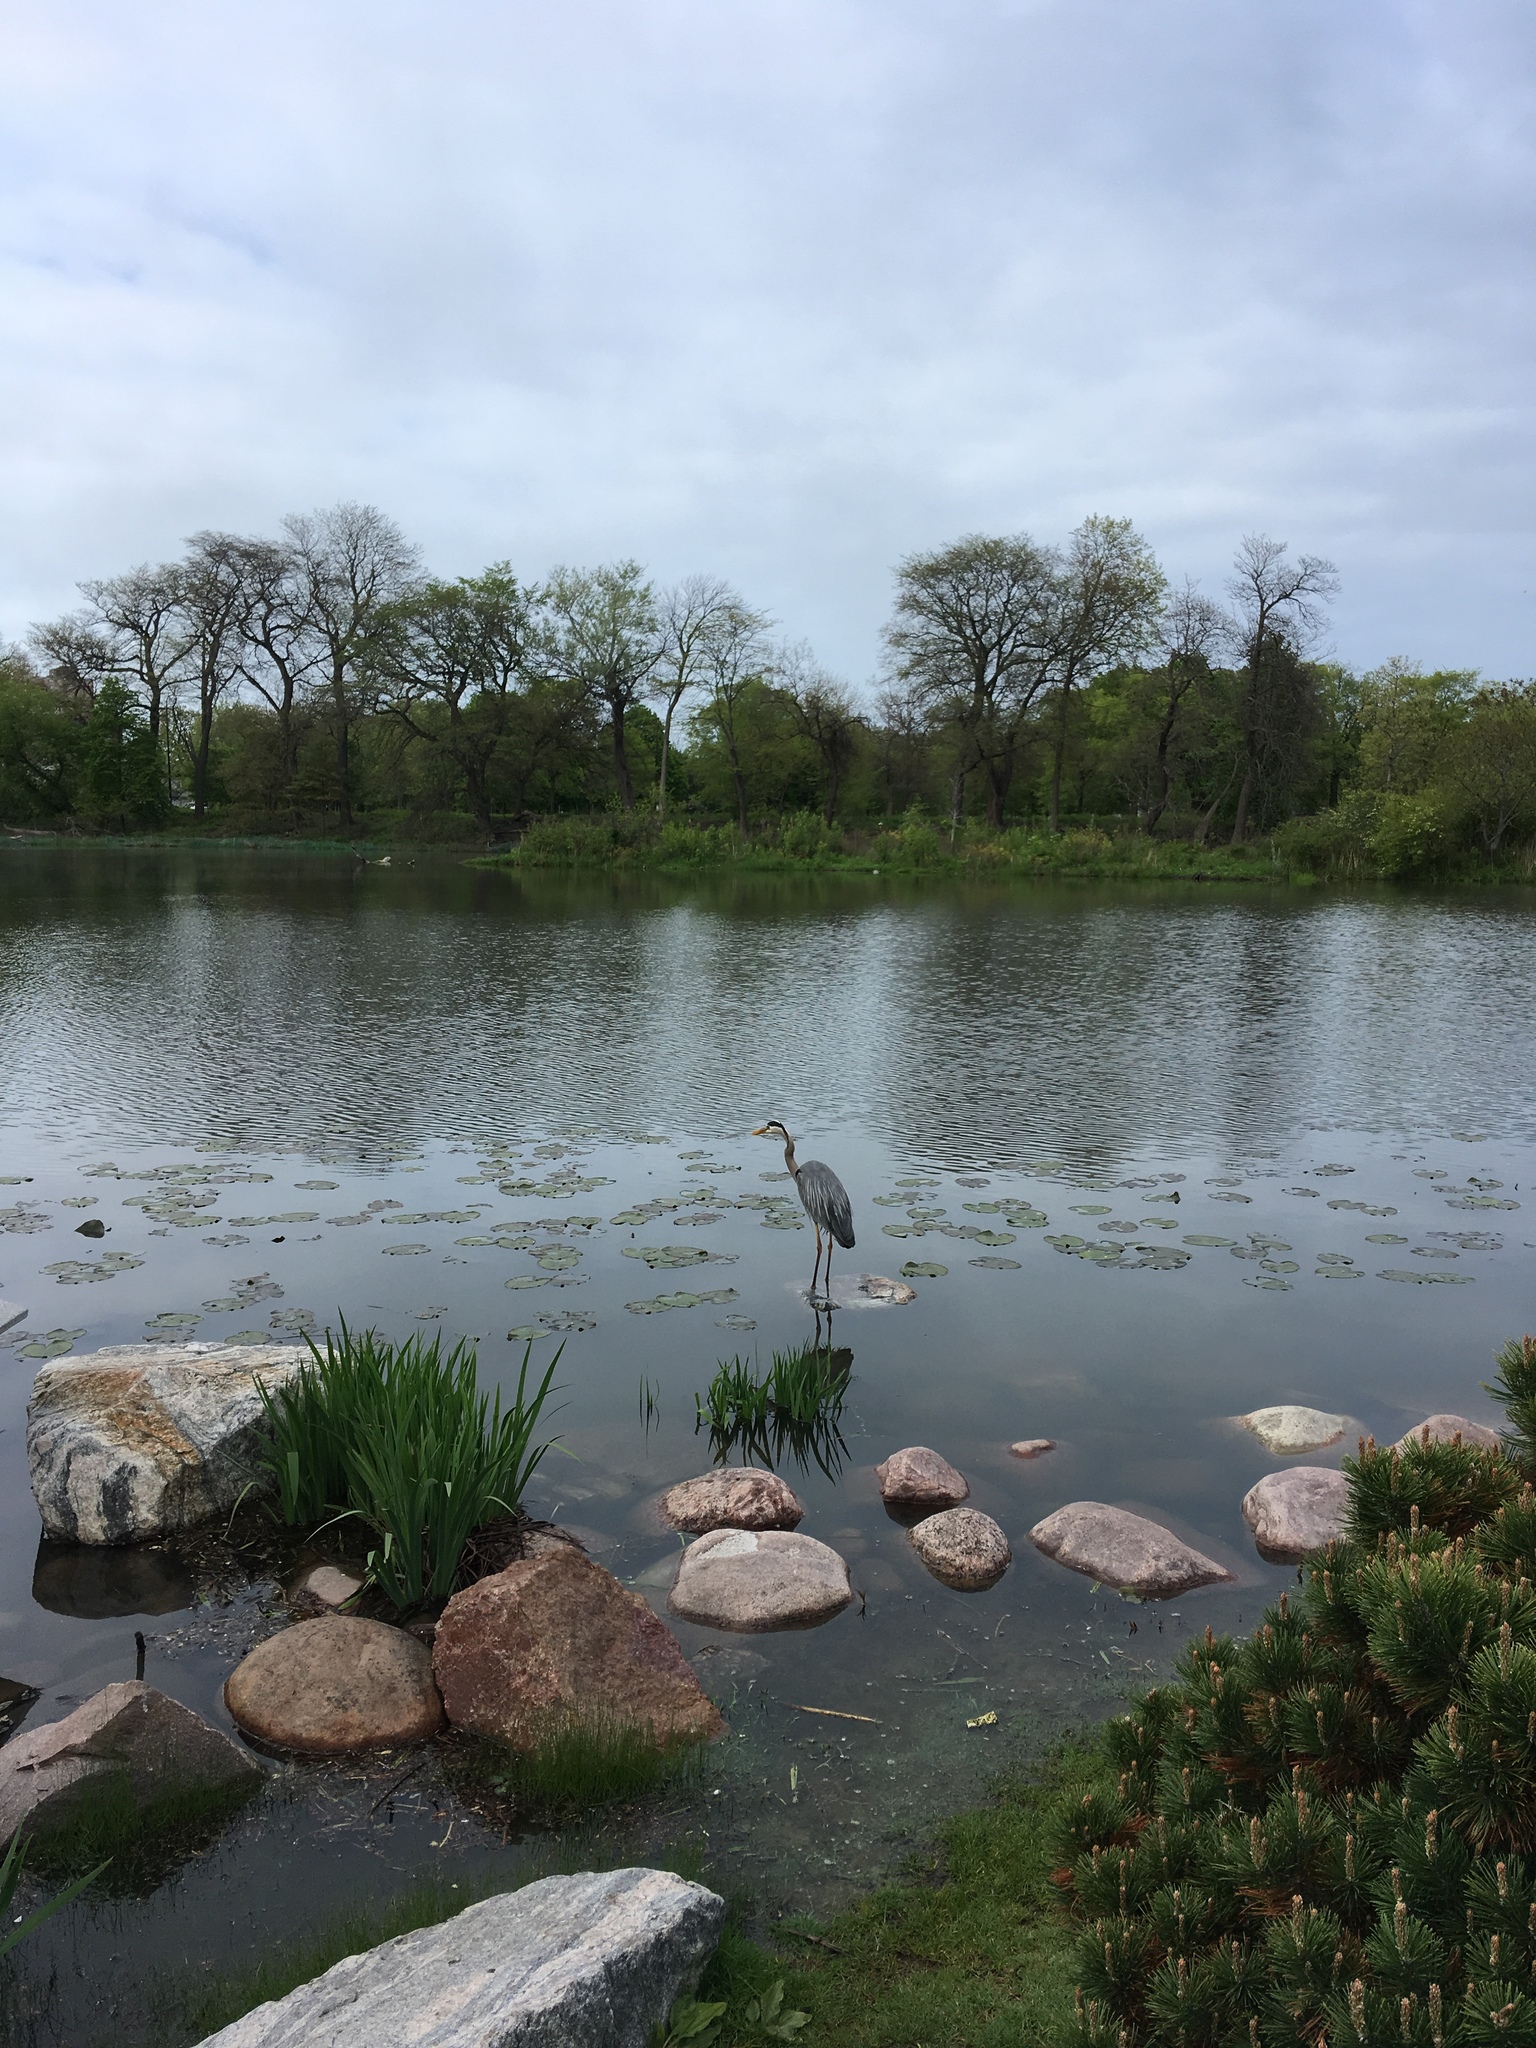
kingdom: Animalia
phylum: Chordata
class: Aves
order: Pelecaniformes
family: Ardeidae
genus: Ardea
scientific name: Ardea herodias
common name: Great blue heron
